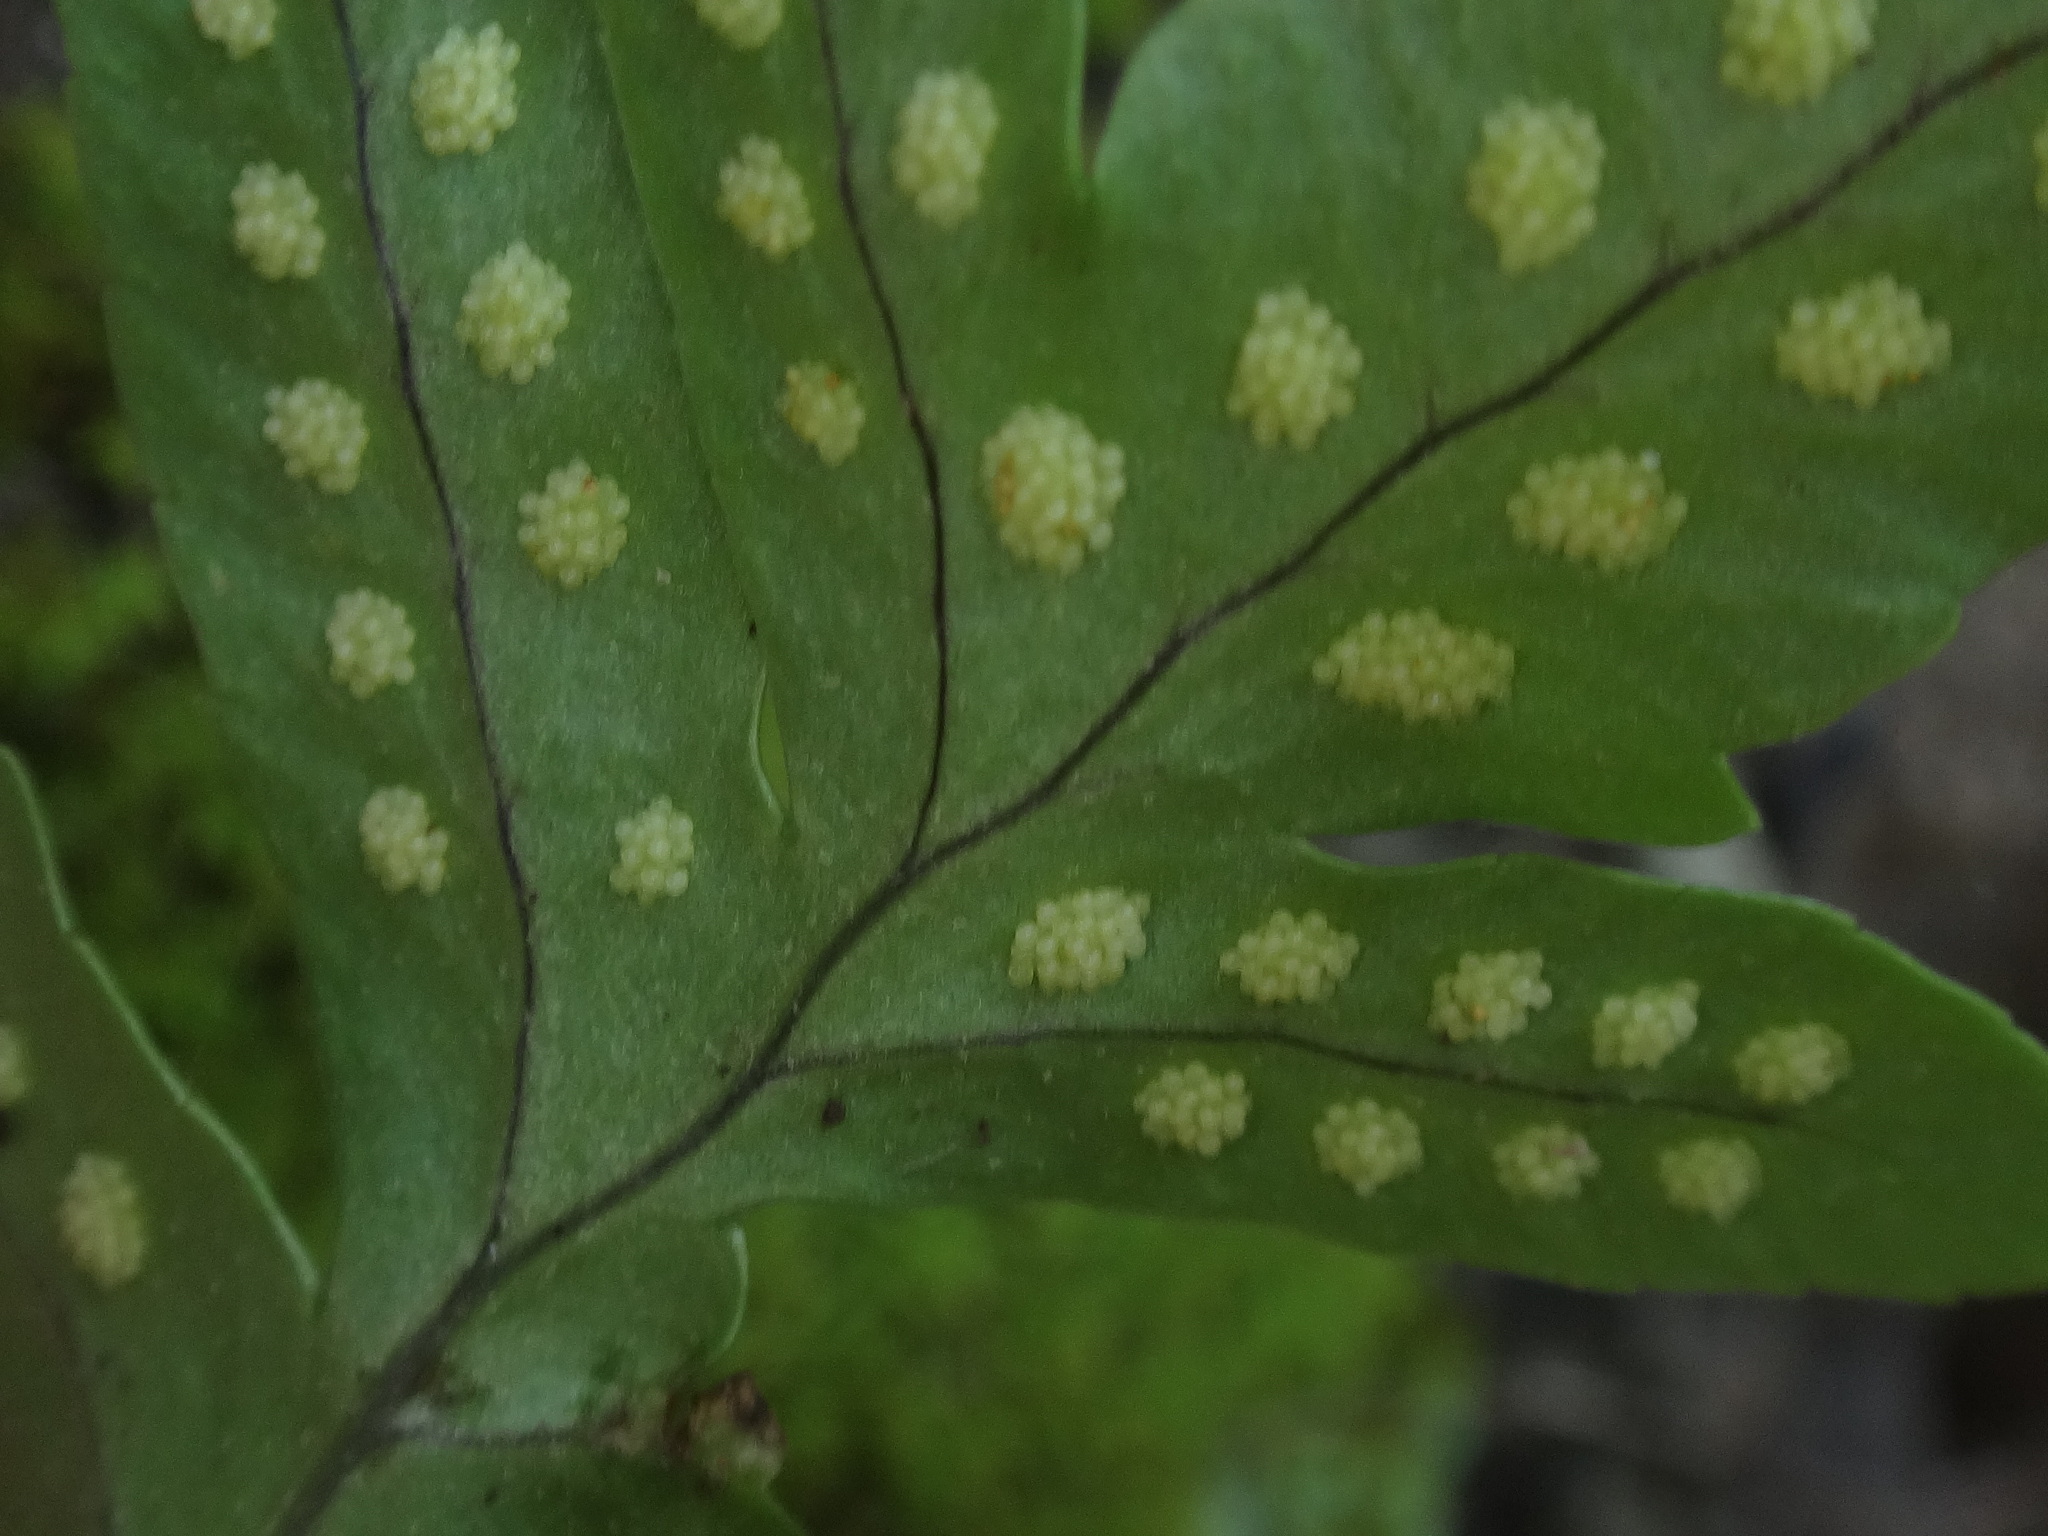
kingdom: Plantae
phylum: Tracheophyta
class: Polypodiopsida
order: Polypodiales
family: Polypodiaceae
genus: Polypodium
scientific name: Polypodium macaronesicum
